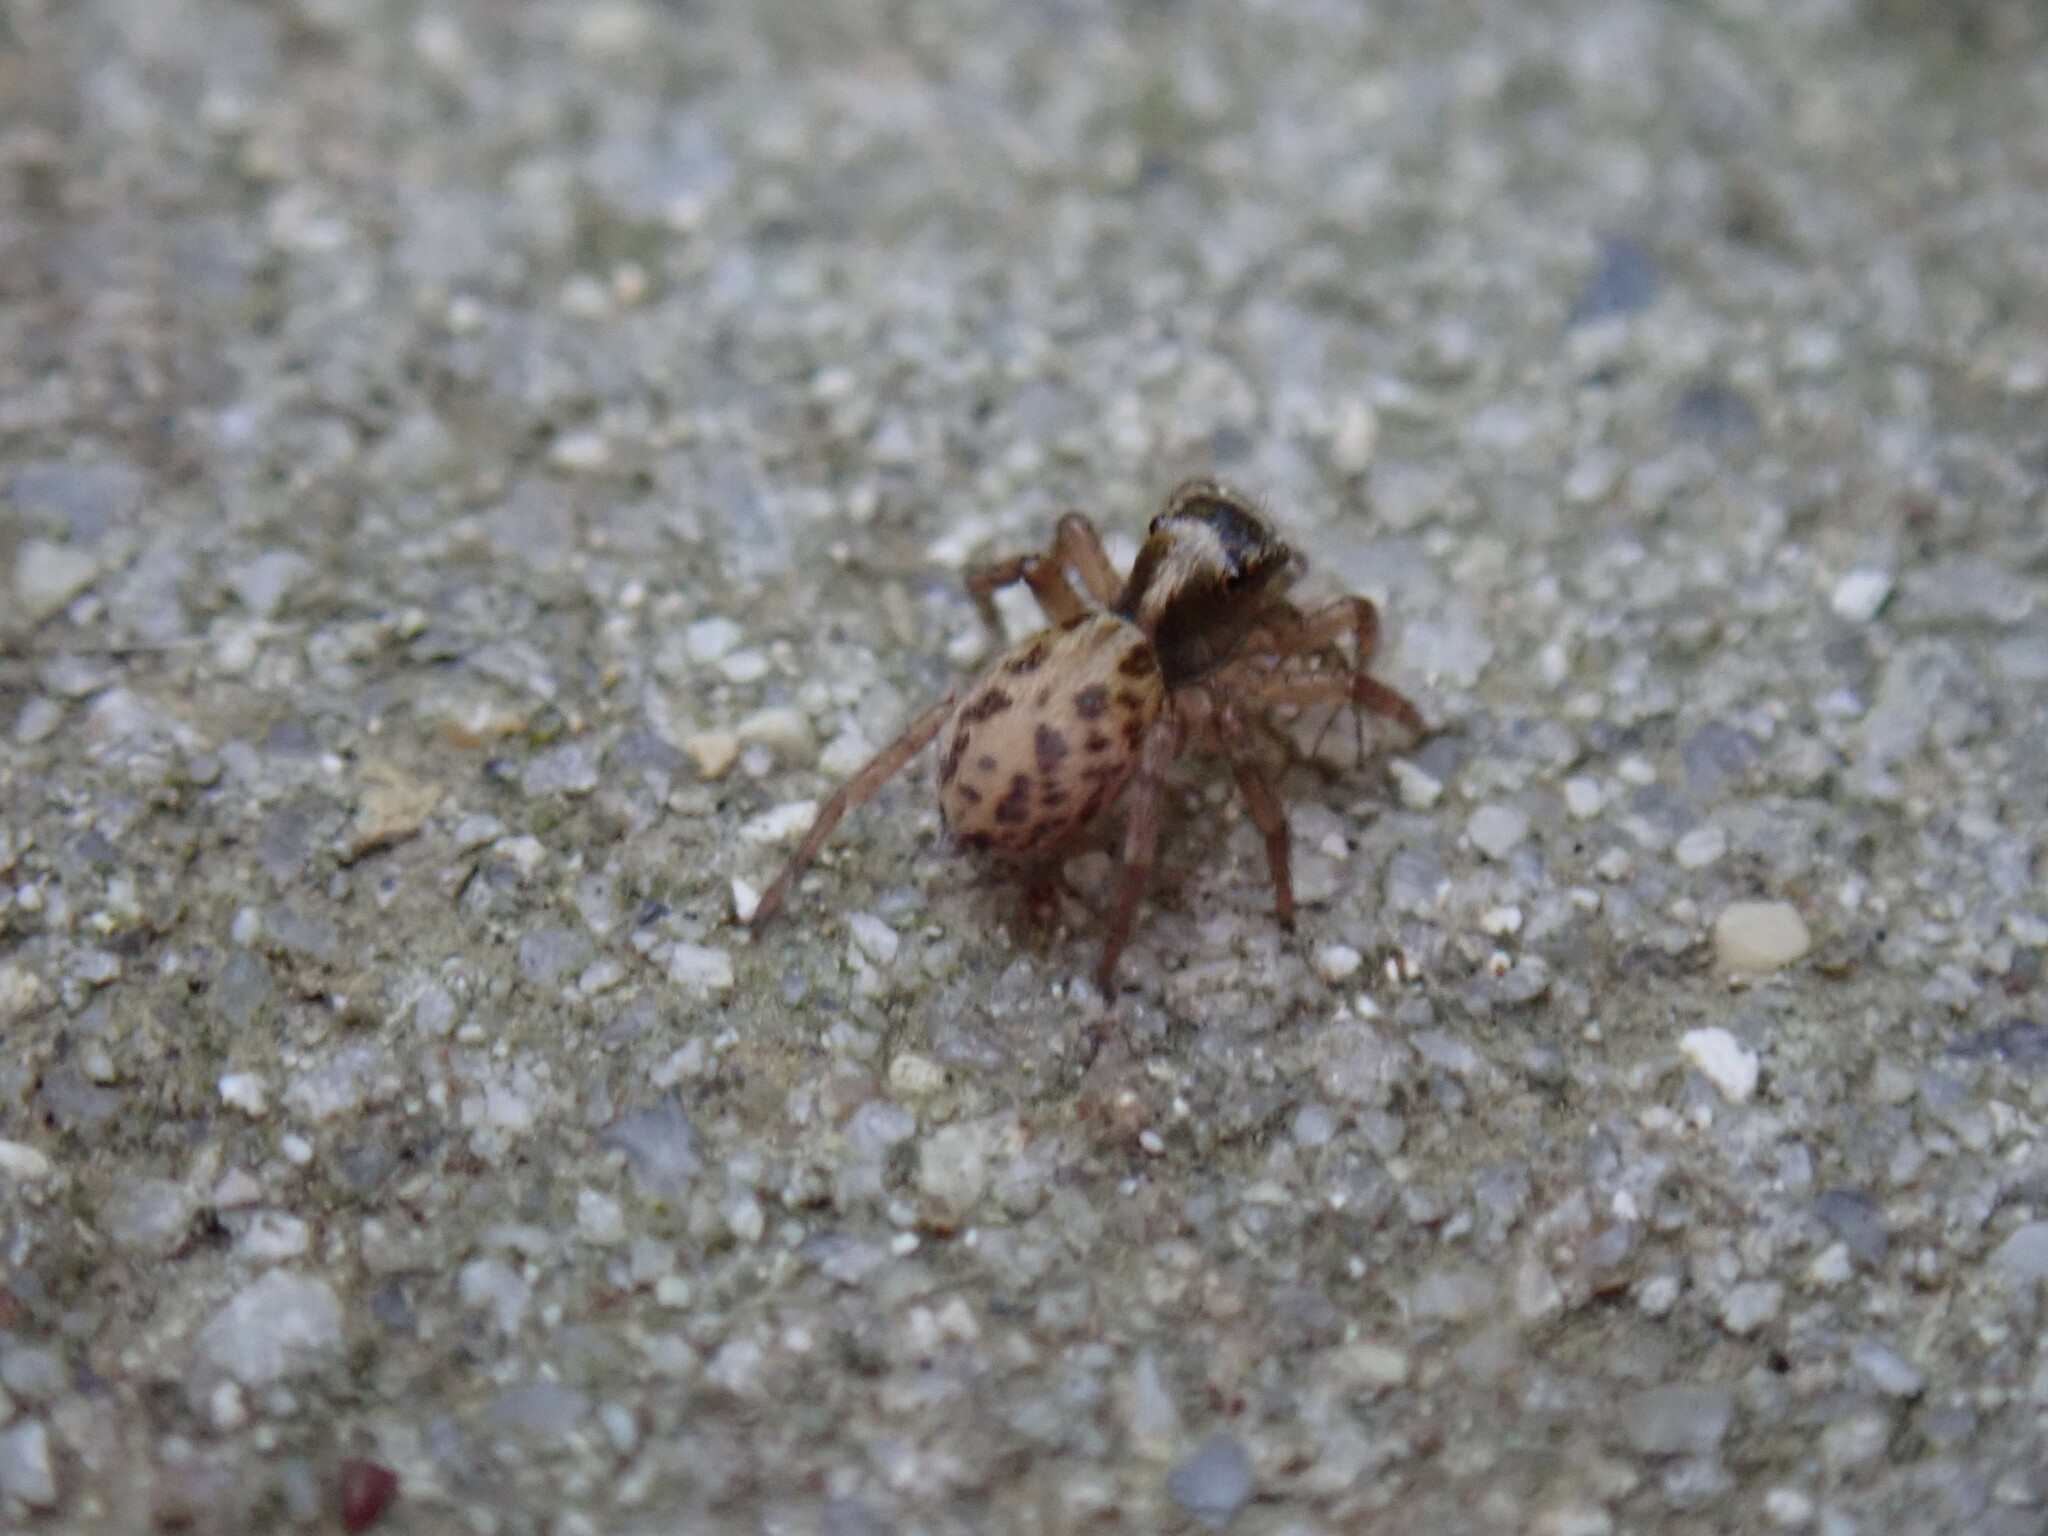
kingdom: Animalia
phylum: Arthropoda
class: Arachnida
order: Araneae
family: Salticidae
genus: Saitis
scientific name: Saitis tauricus
